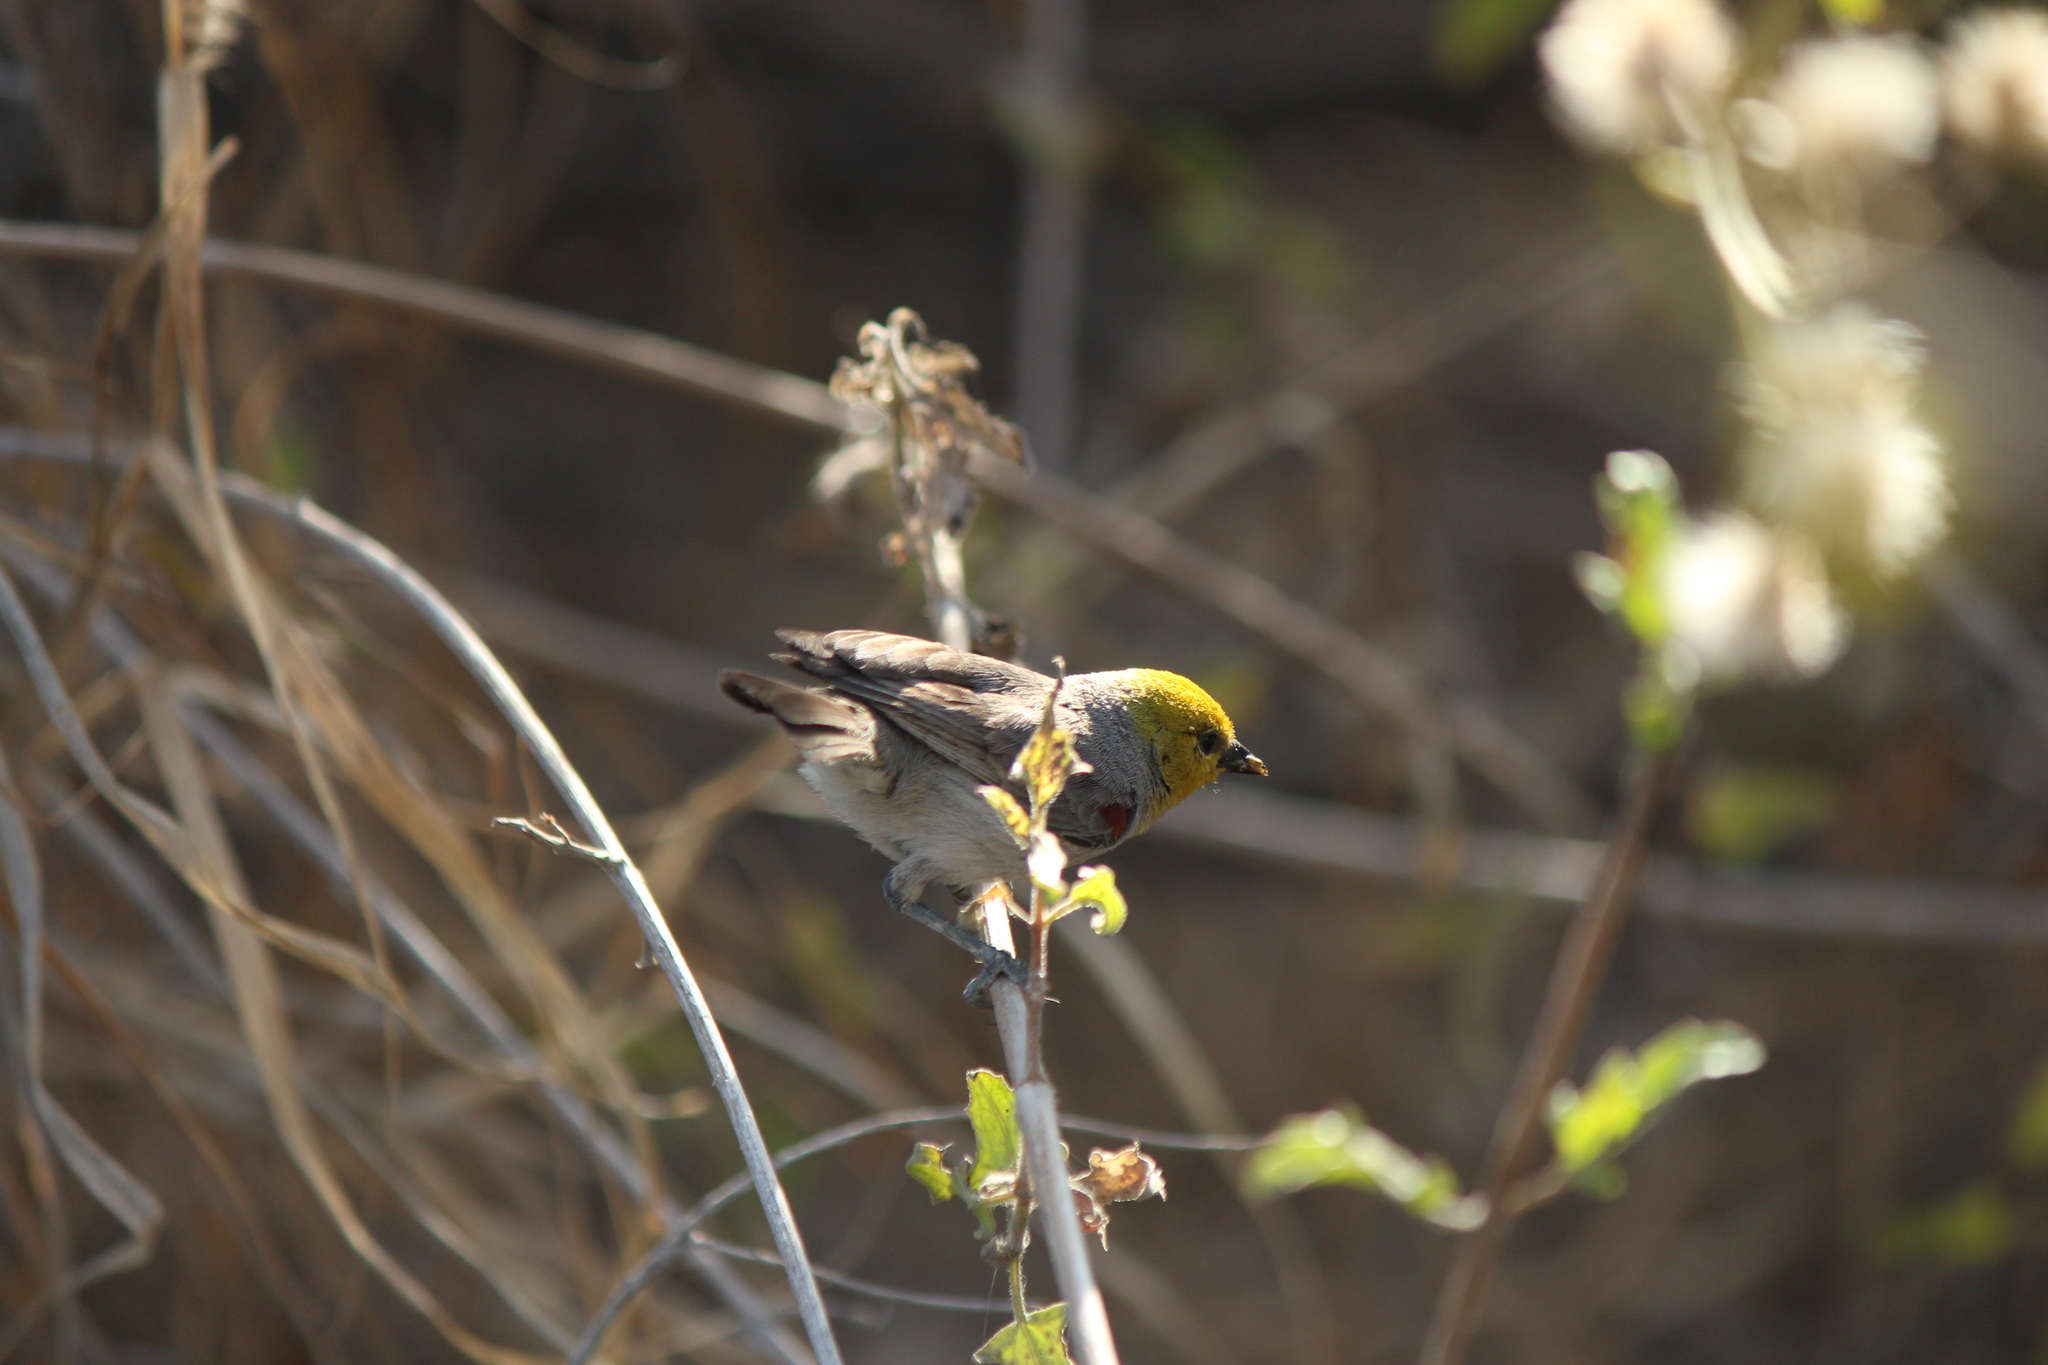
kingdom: Animalia
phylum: Chordata
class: Aves
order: Passeriformes
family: Remizidae
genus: Auriparus
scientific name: Auriparus flaviceps
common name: Verdin
